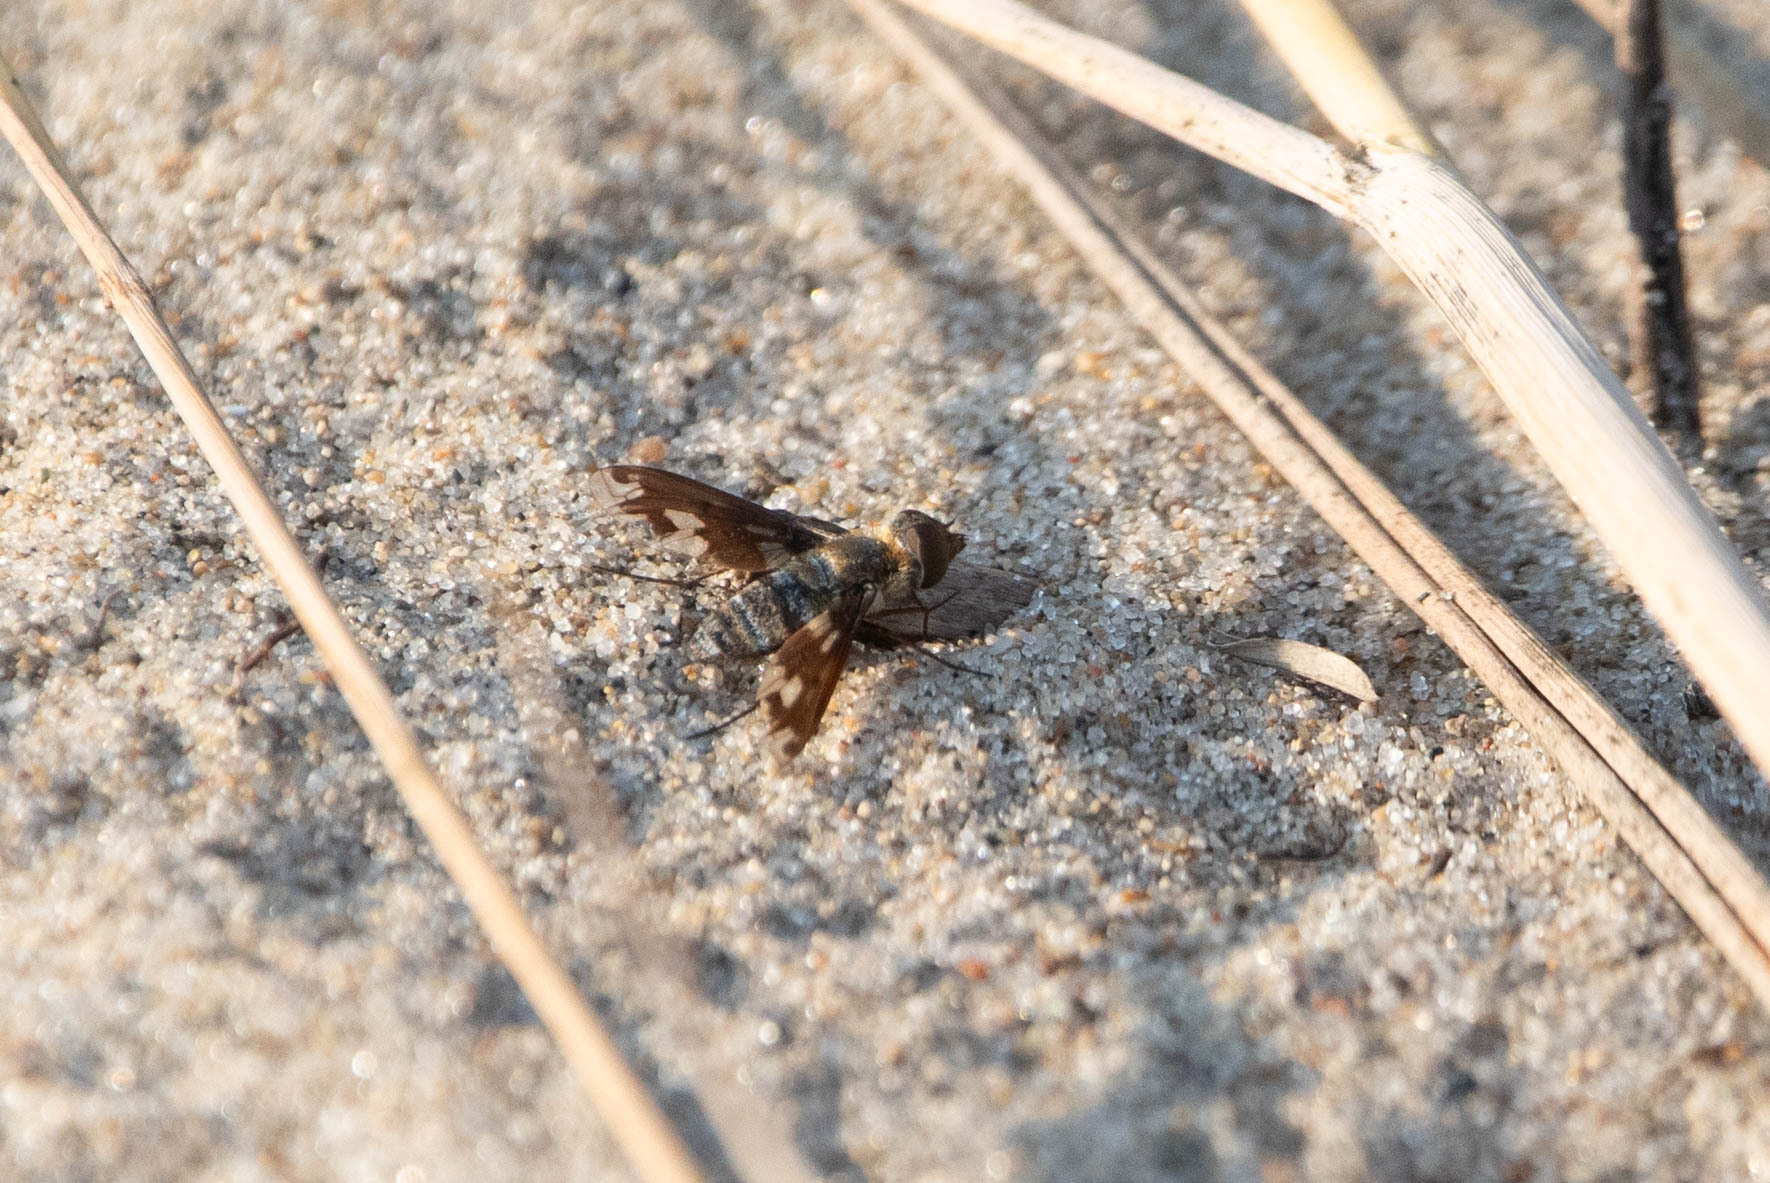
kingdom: Animalia
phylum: Arthropoda
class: Insecta
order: Diptera
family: Bombyliidae
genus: Exoprosopa
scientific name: Exoprosopa fascipennis
